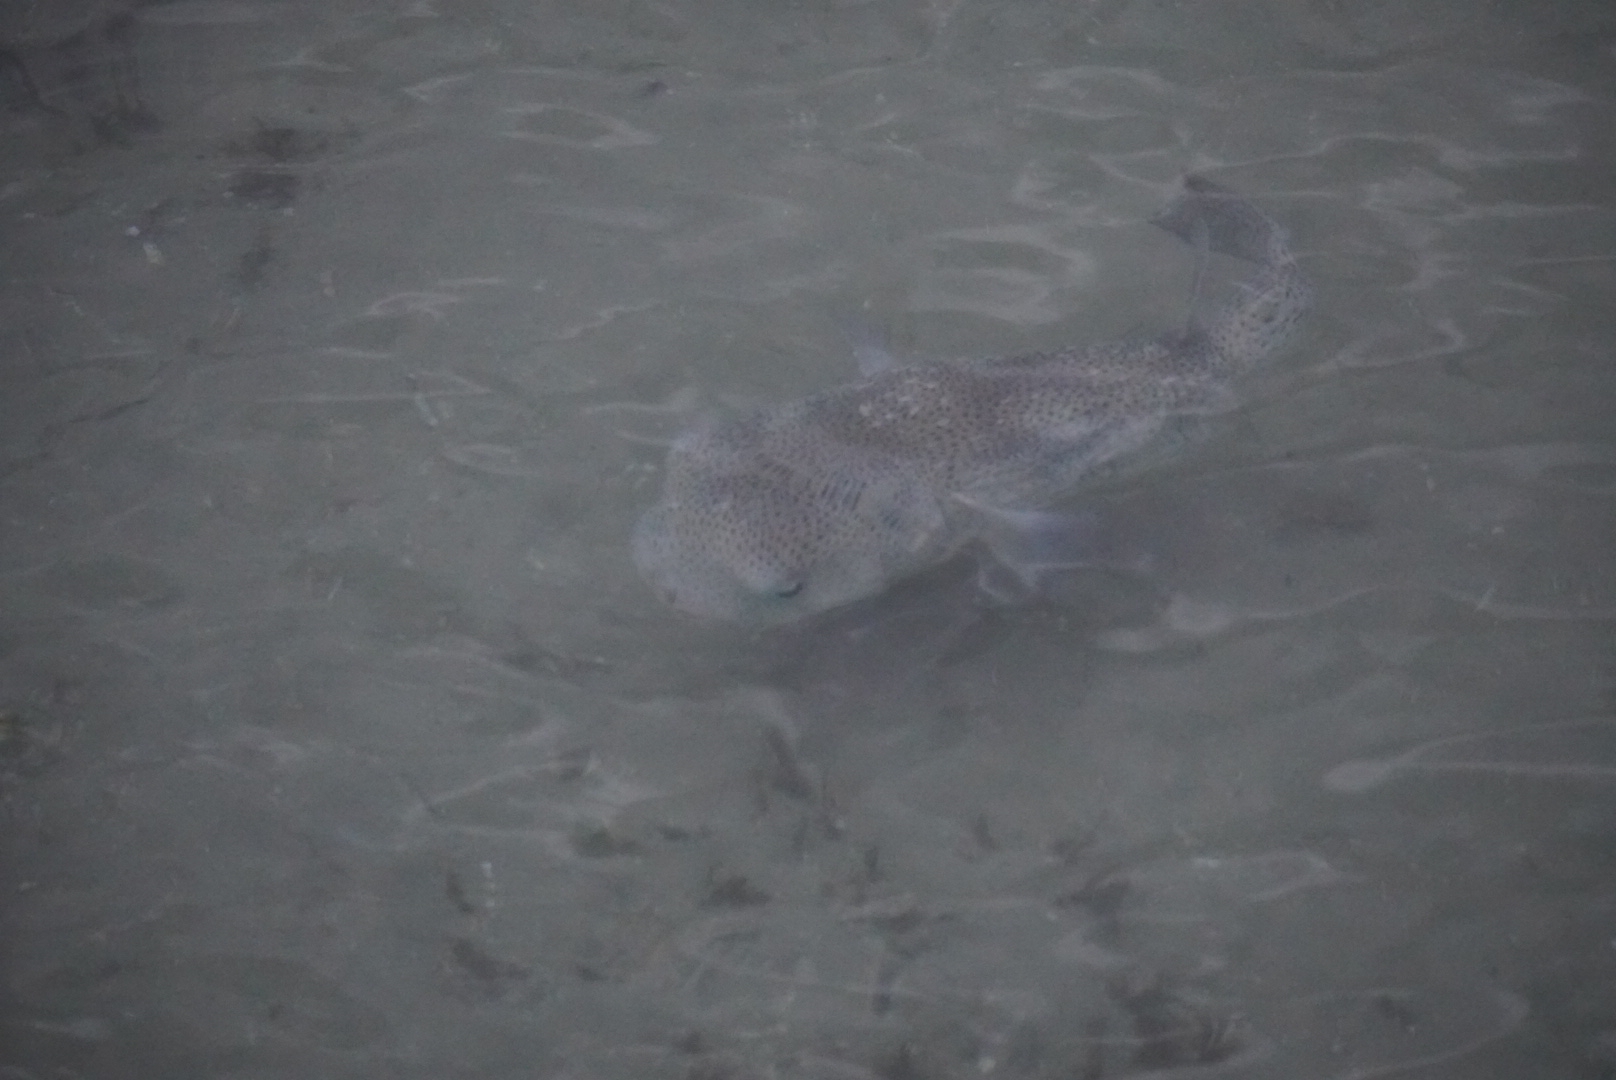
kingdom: Animalia
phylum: Chordata
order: Tetraodontiformes
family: Diodontidae
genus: Diodon
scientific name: Diodon hystrix
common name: Giant porcupinefish
